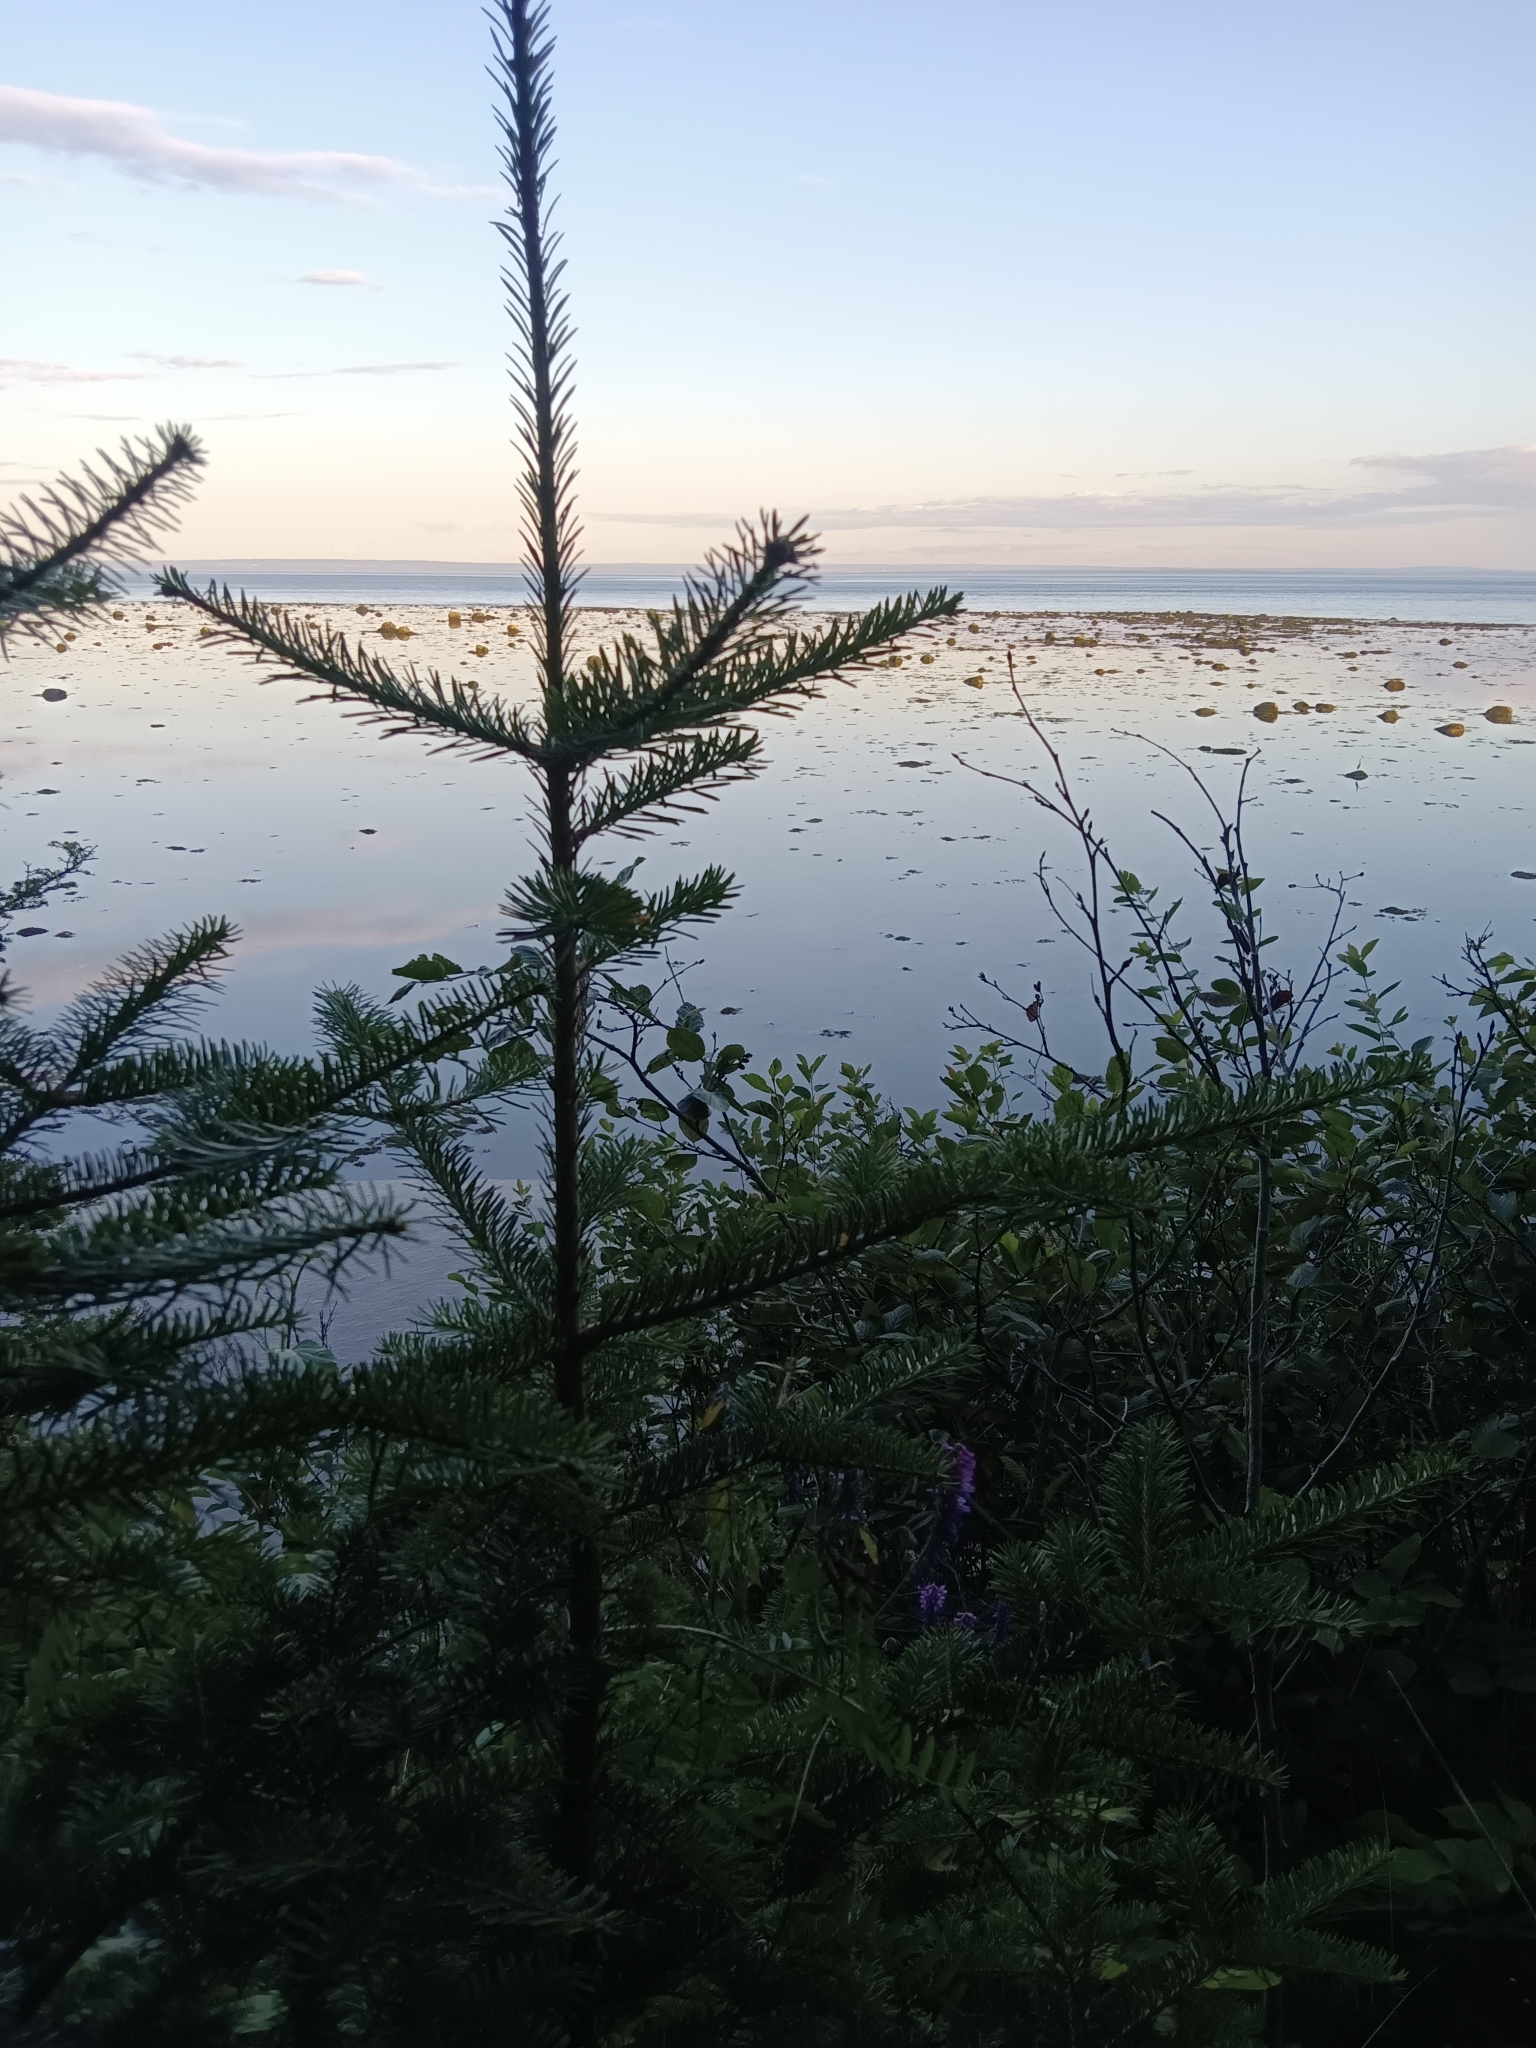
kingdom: Plantae
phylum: Tracheophyta
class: Pinopsida
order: Pinales
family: Pinaceae
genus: Abies
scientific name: Abies balsamea
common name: Balsam fir
